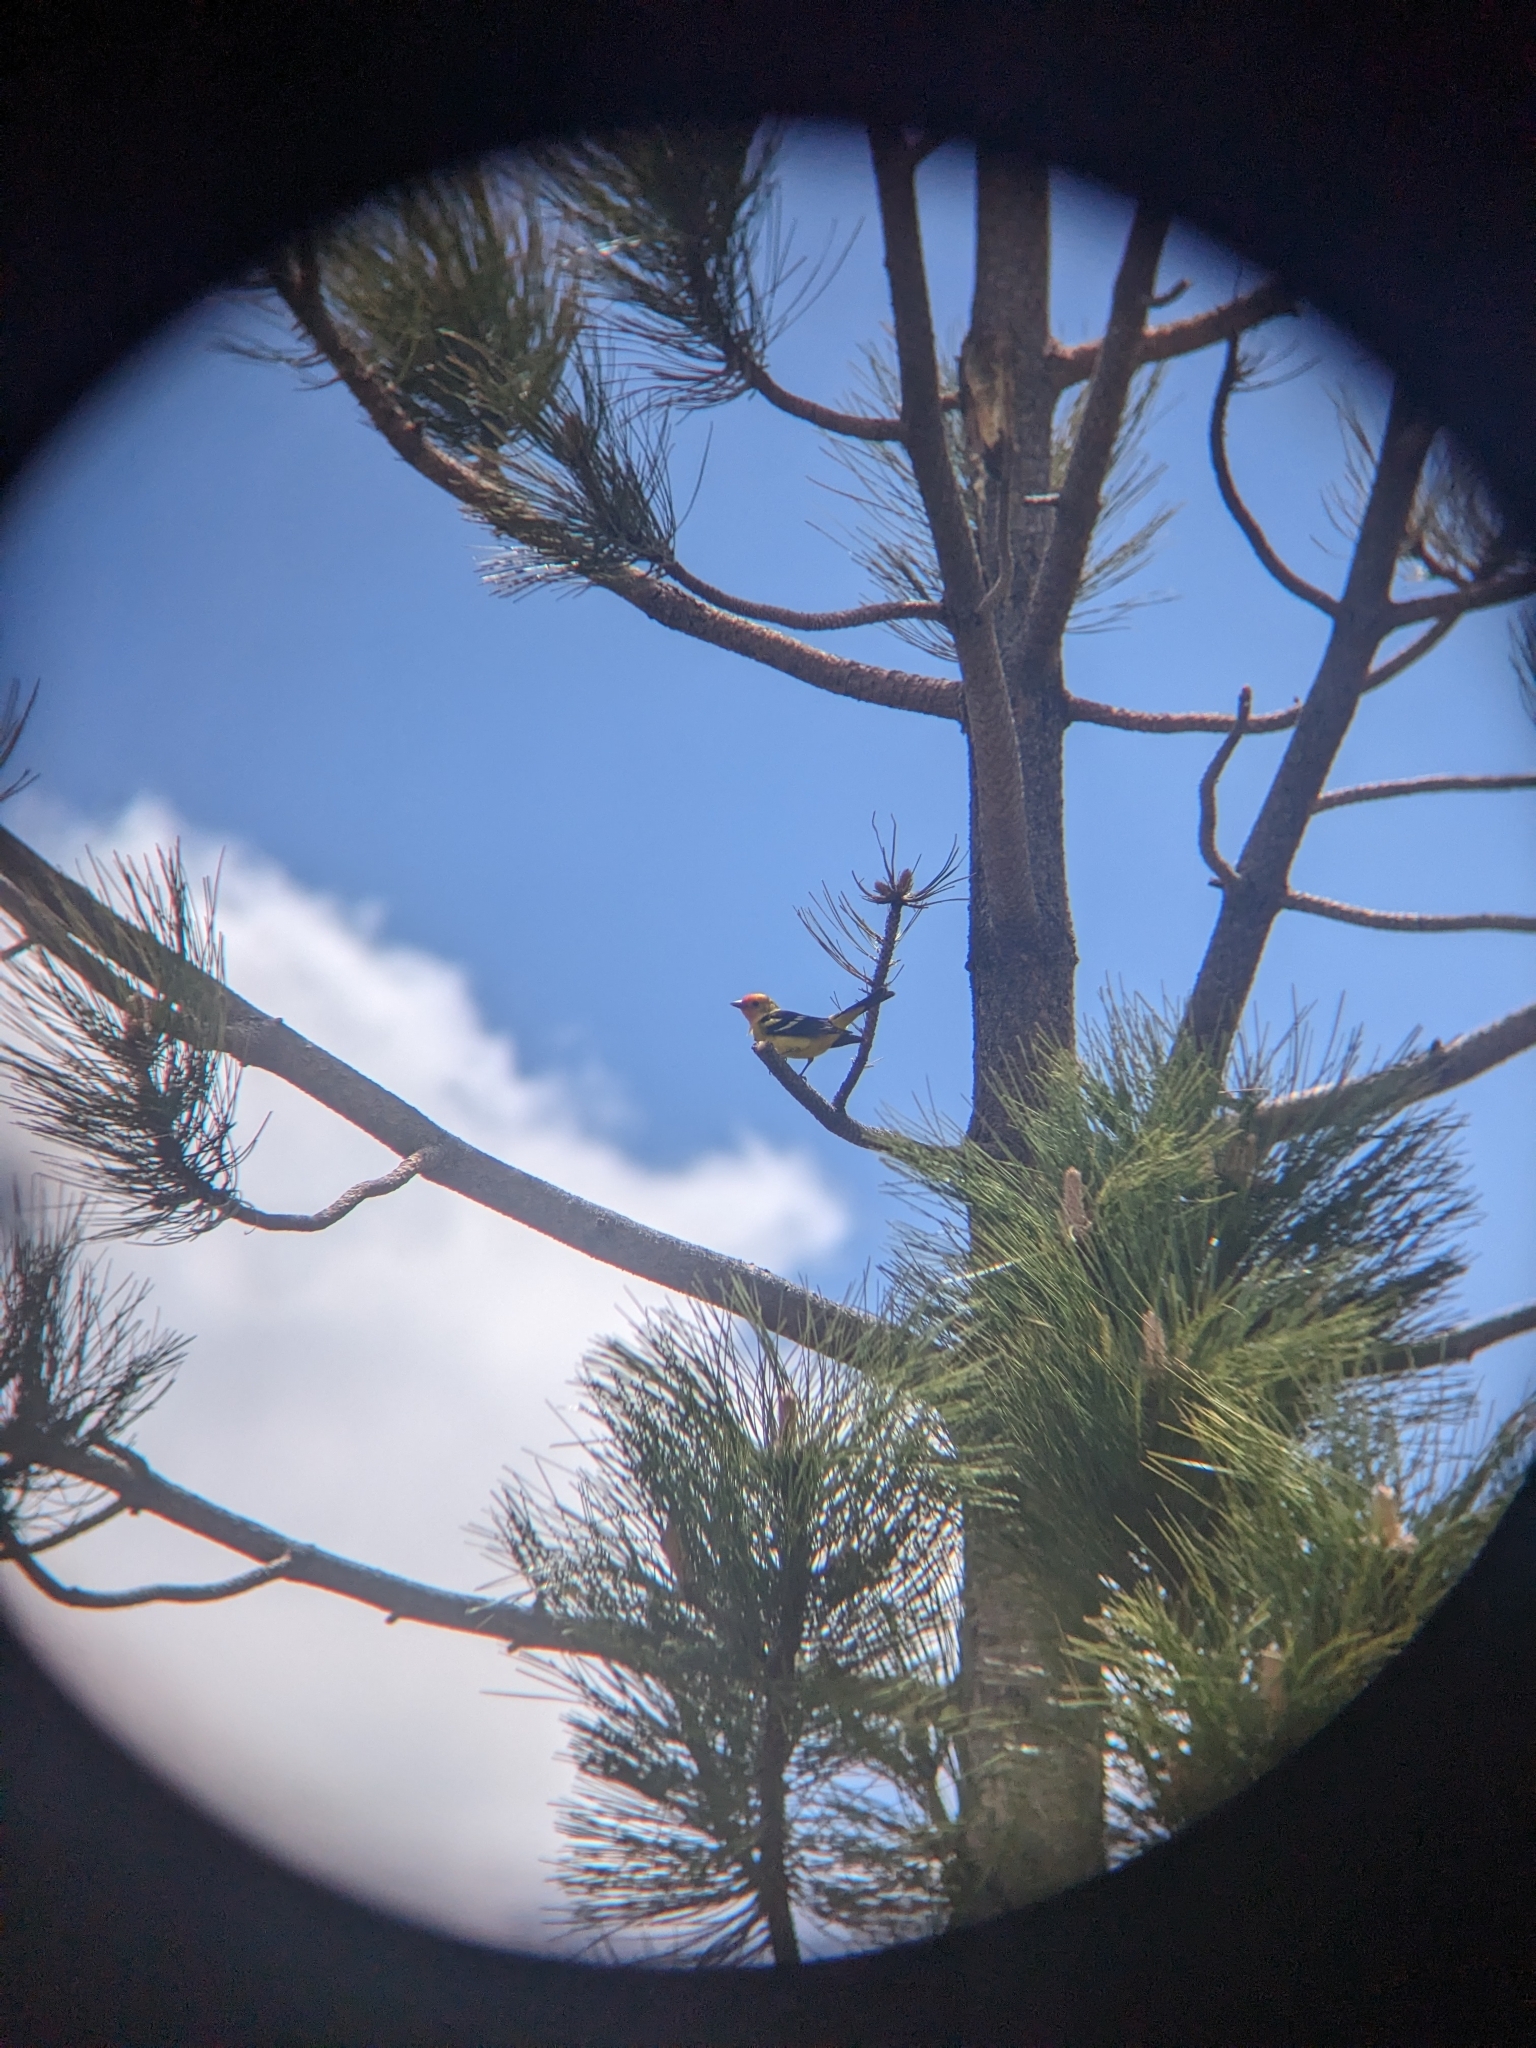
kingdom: Animalia
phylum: Chordata
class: Aves
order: Passeriformes
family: Cardinalidae
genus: Piranga
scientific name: Piranga ludoviciana
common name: Western tanager
